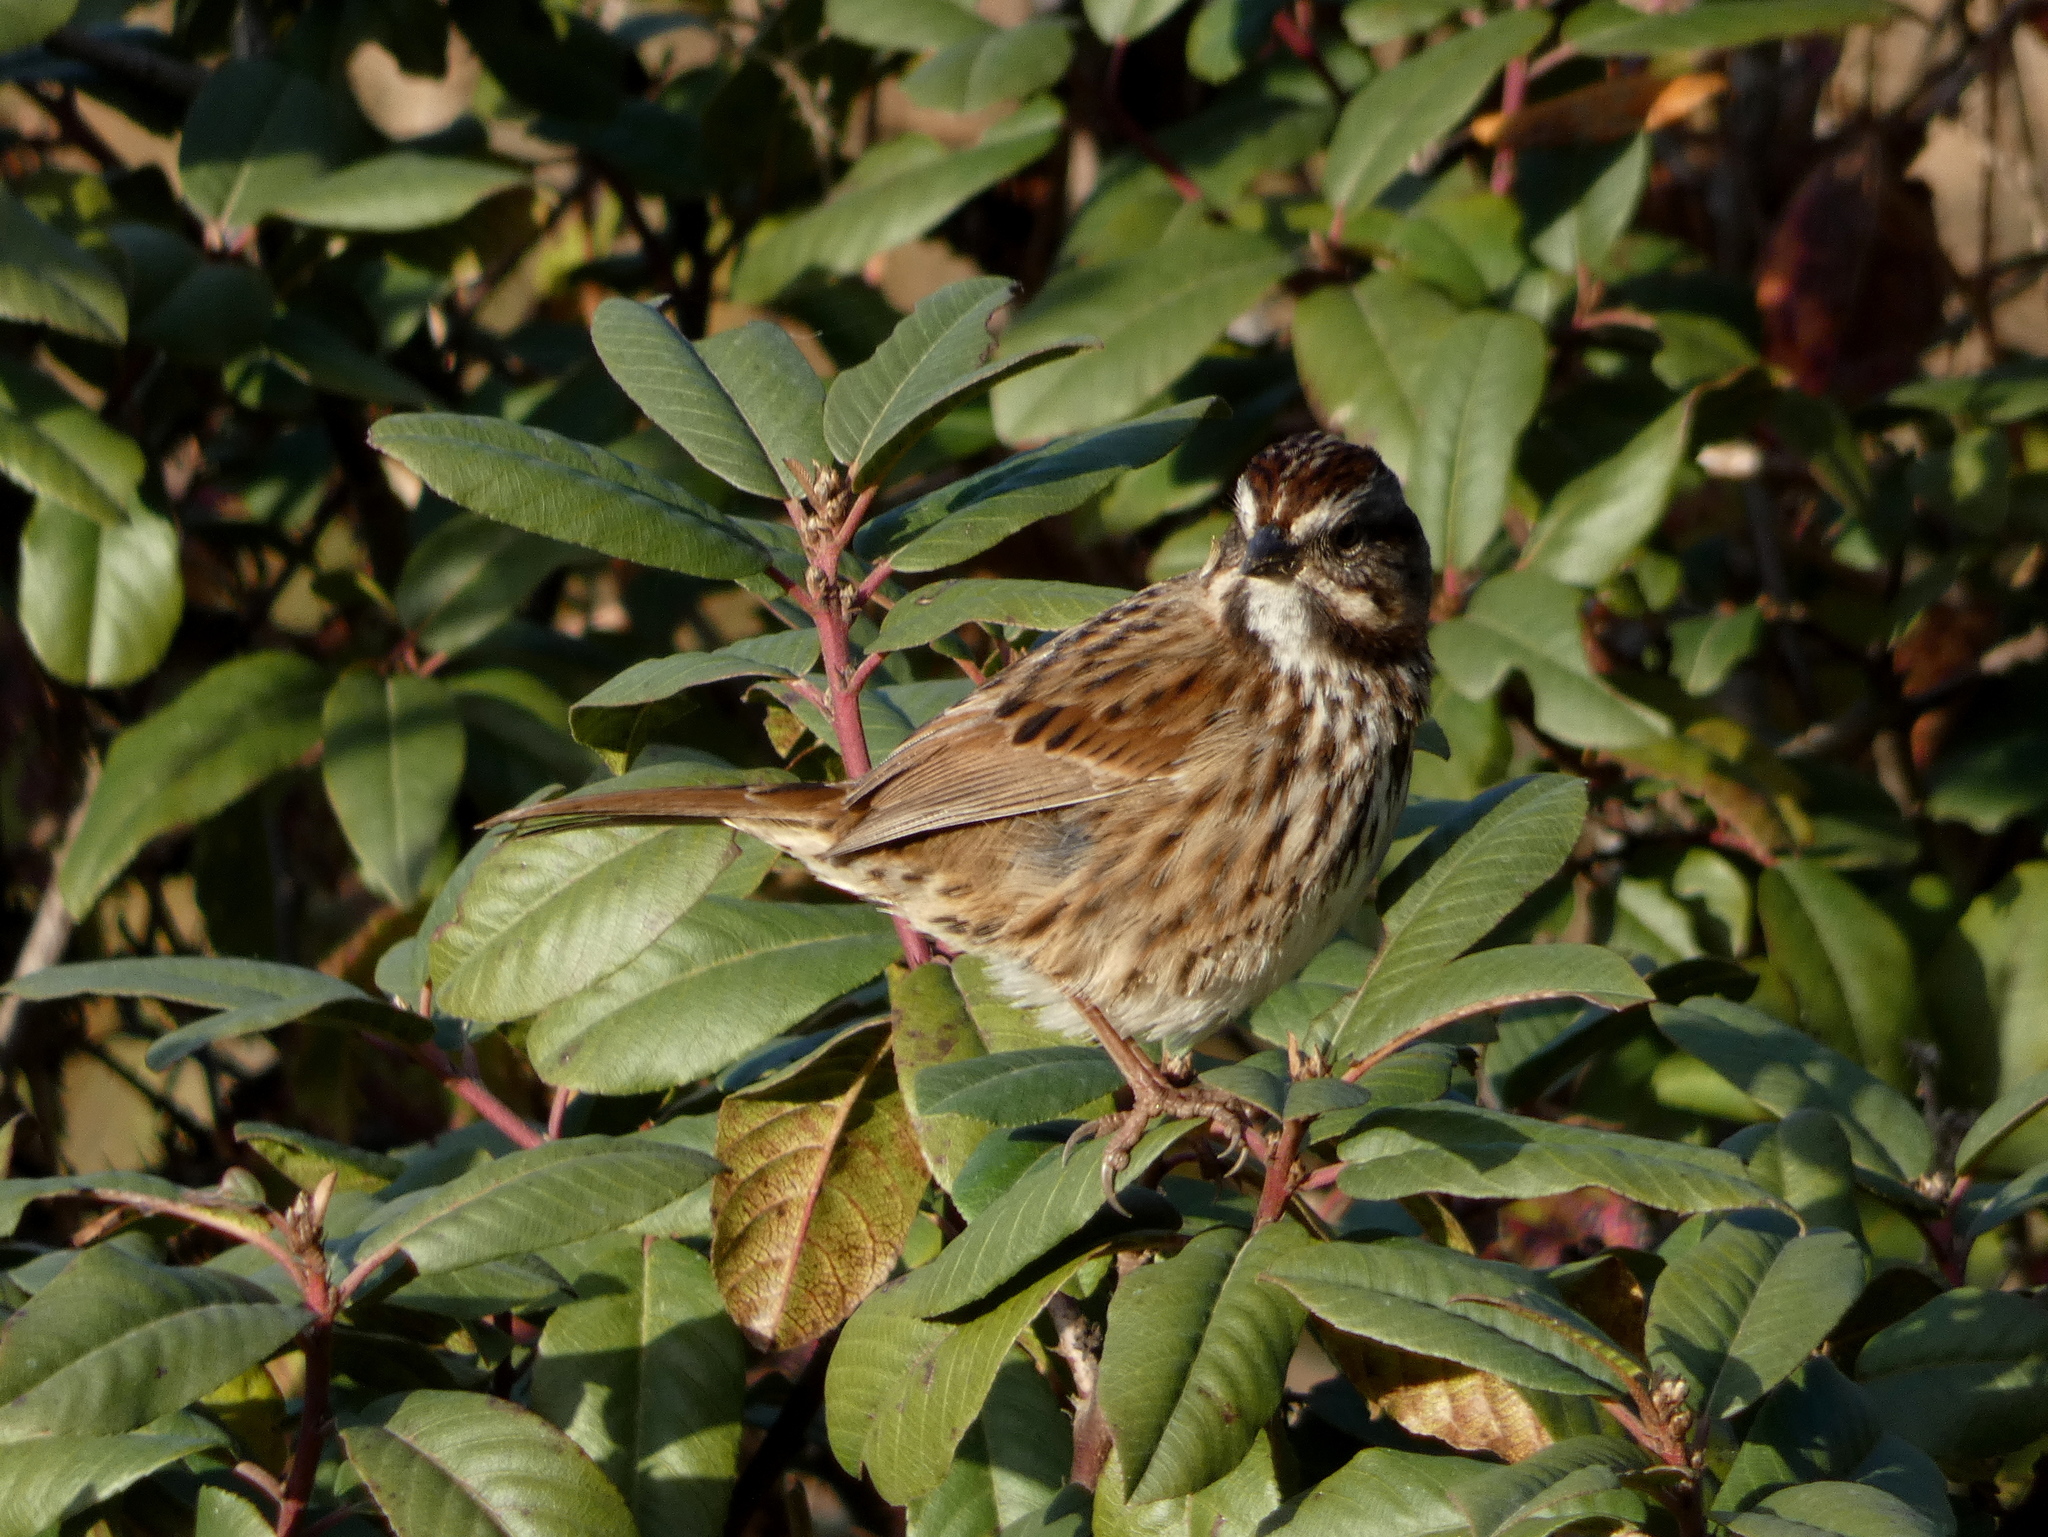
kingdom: Animalia
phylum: Chordata
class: Aves
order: Passeriformes
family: Passerellidae
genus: Melospiza
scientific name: Melospiza melodia
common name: Song sparrow
